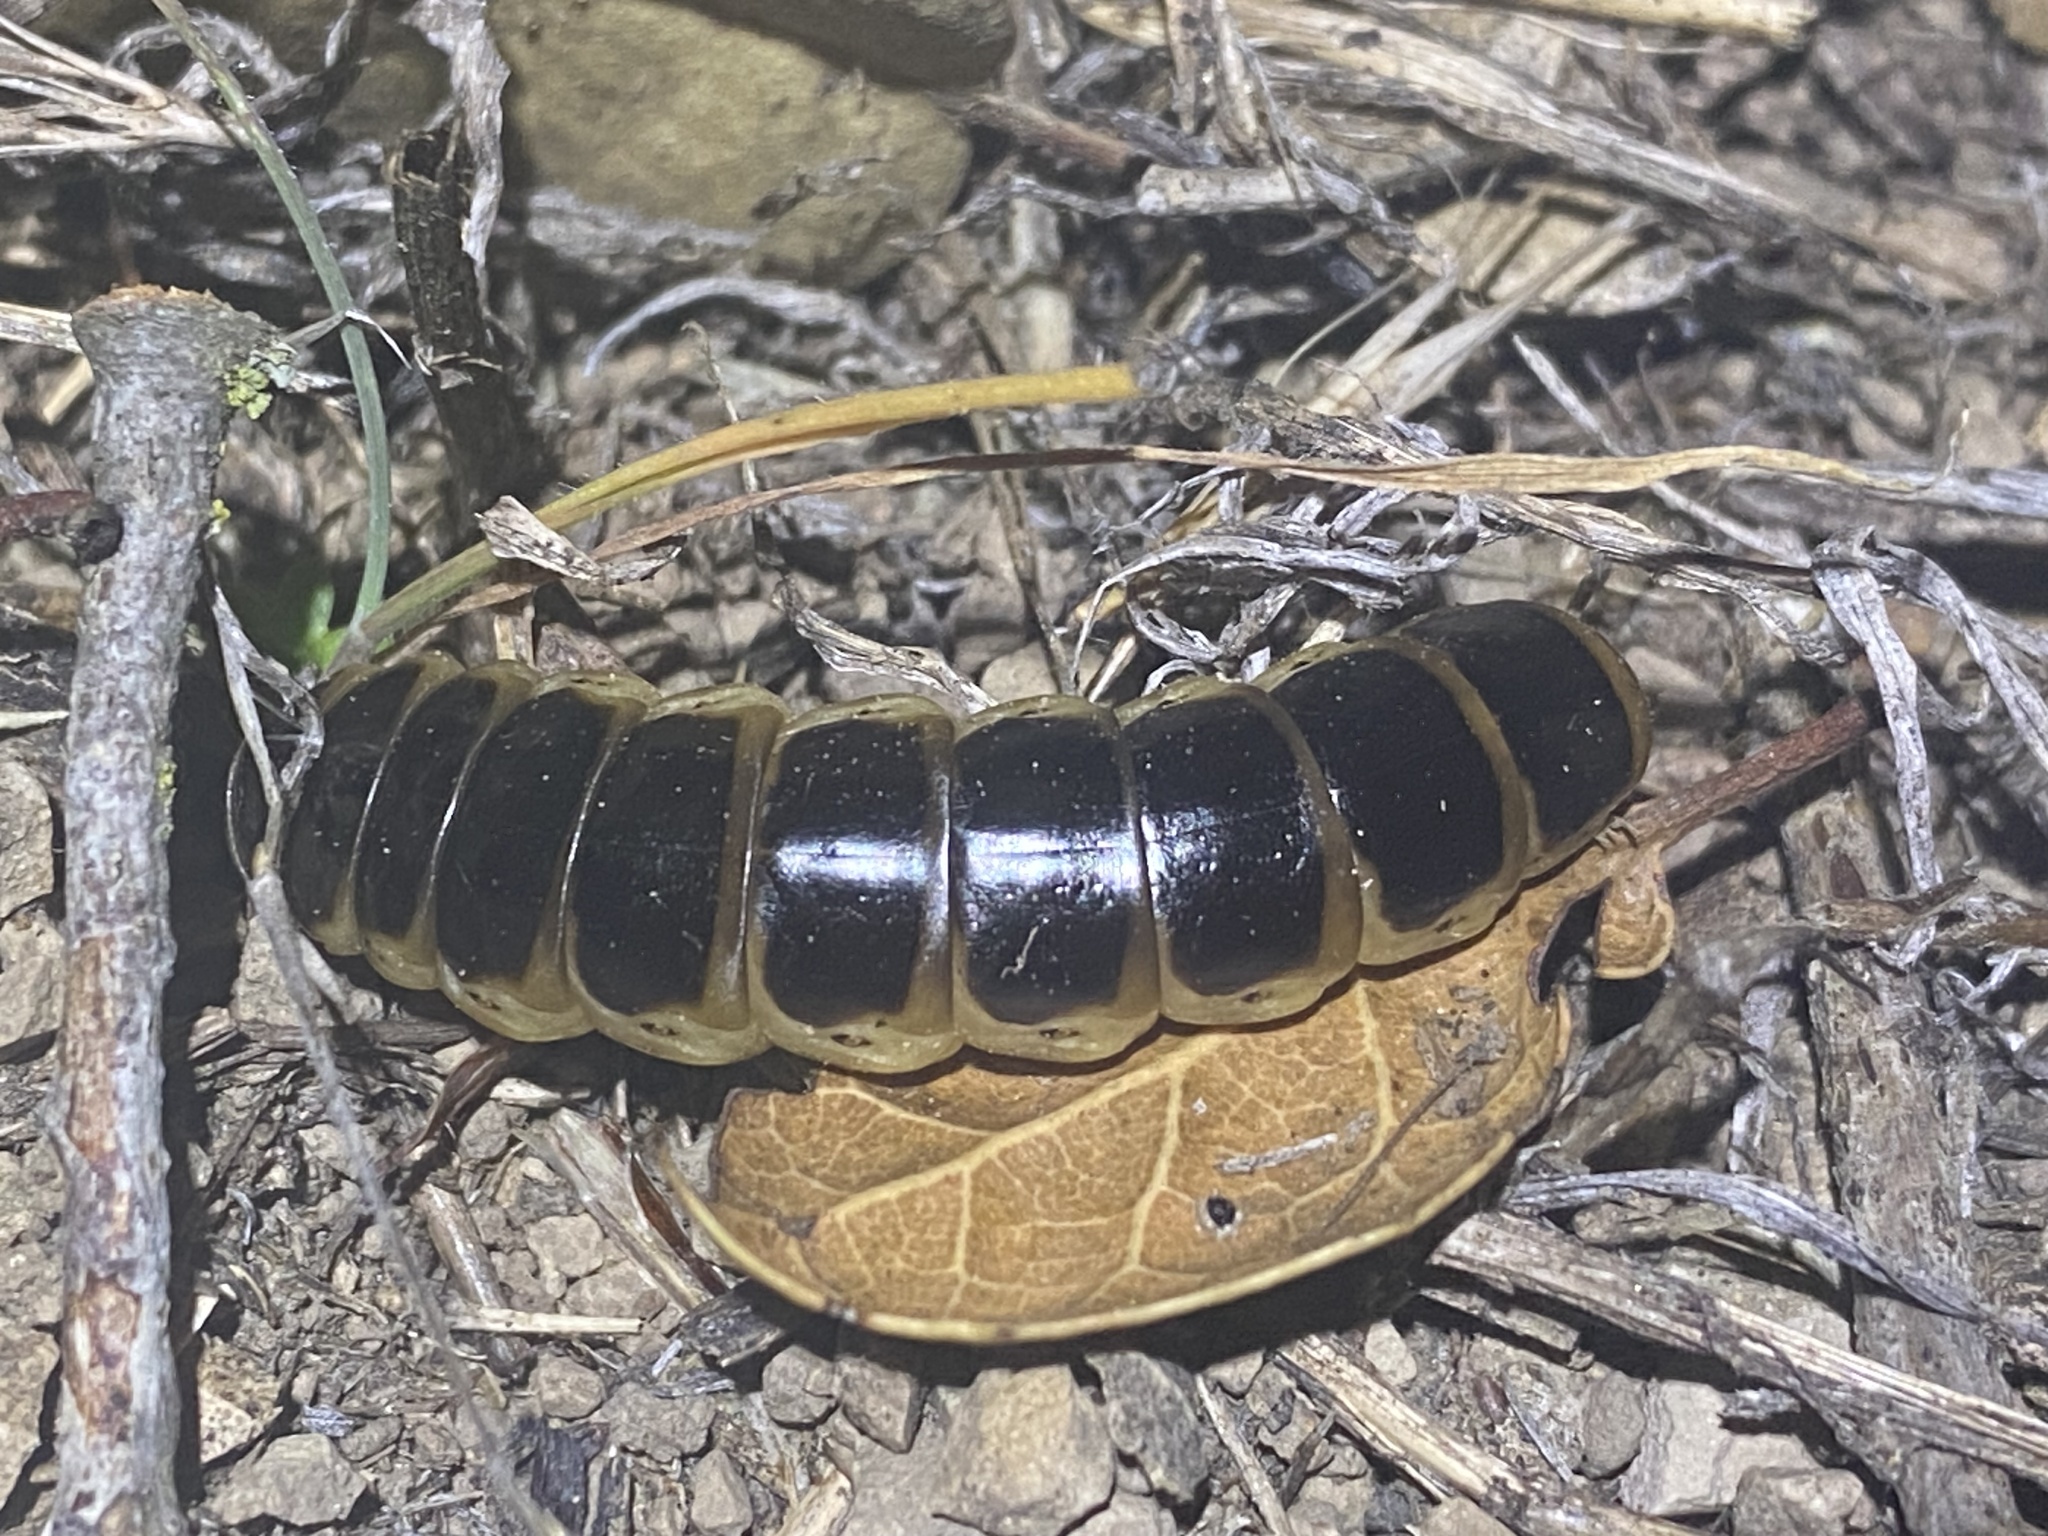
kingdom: Animalia
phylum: Arthropoda
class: Insecta
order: Coleoptera
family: Phengodidae
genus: Zarhipis
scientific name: Zarhipis integripennis
